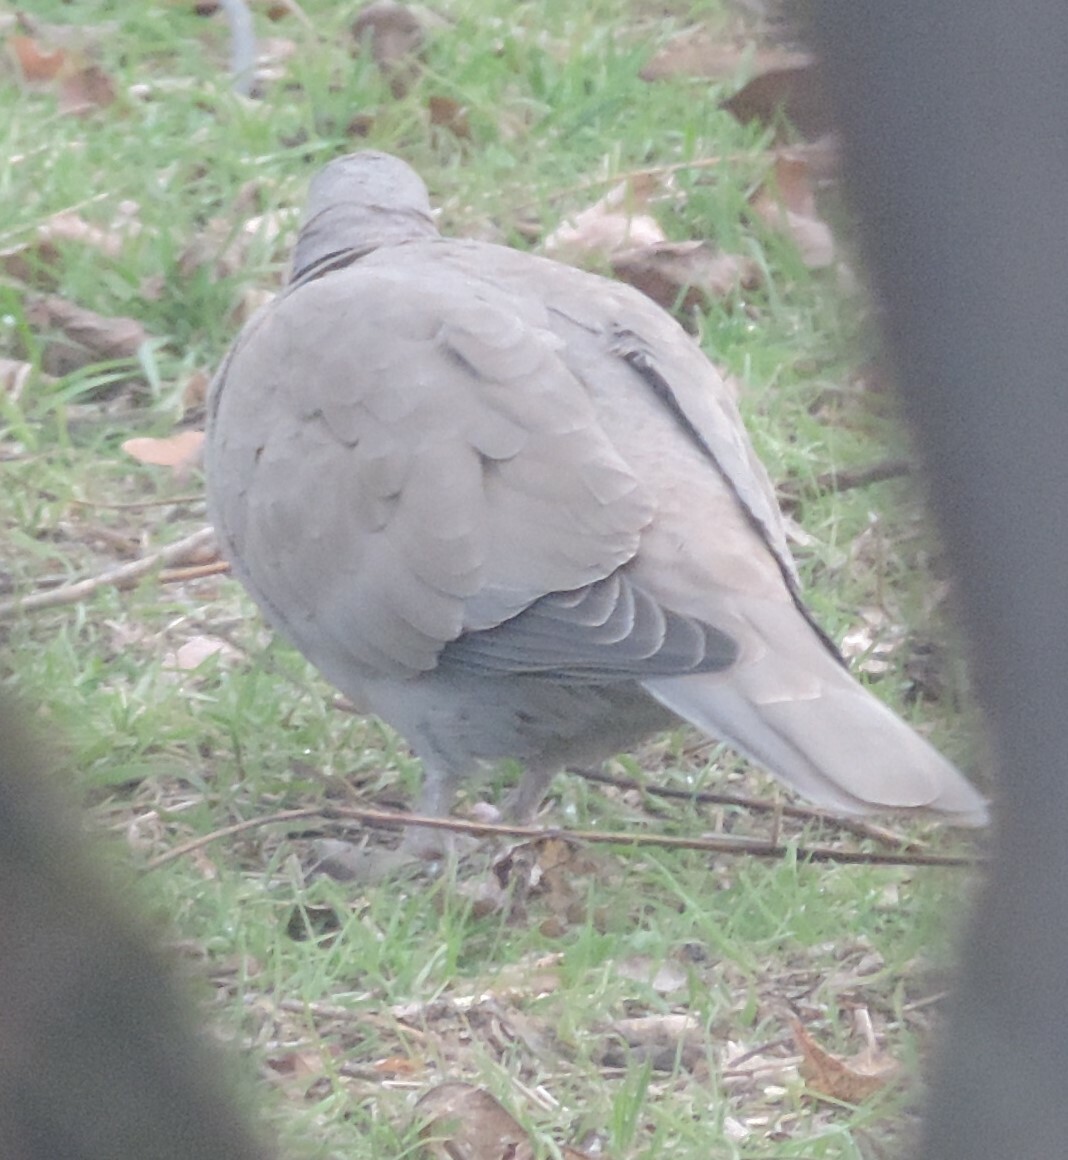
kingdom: Animalia
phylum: Chordata
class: Aves
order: Columbiformes
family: Columbidae
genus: Streptopelia
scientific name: Streptopelia decaocto
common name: Eurasian collared dove
